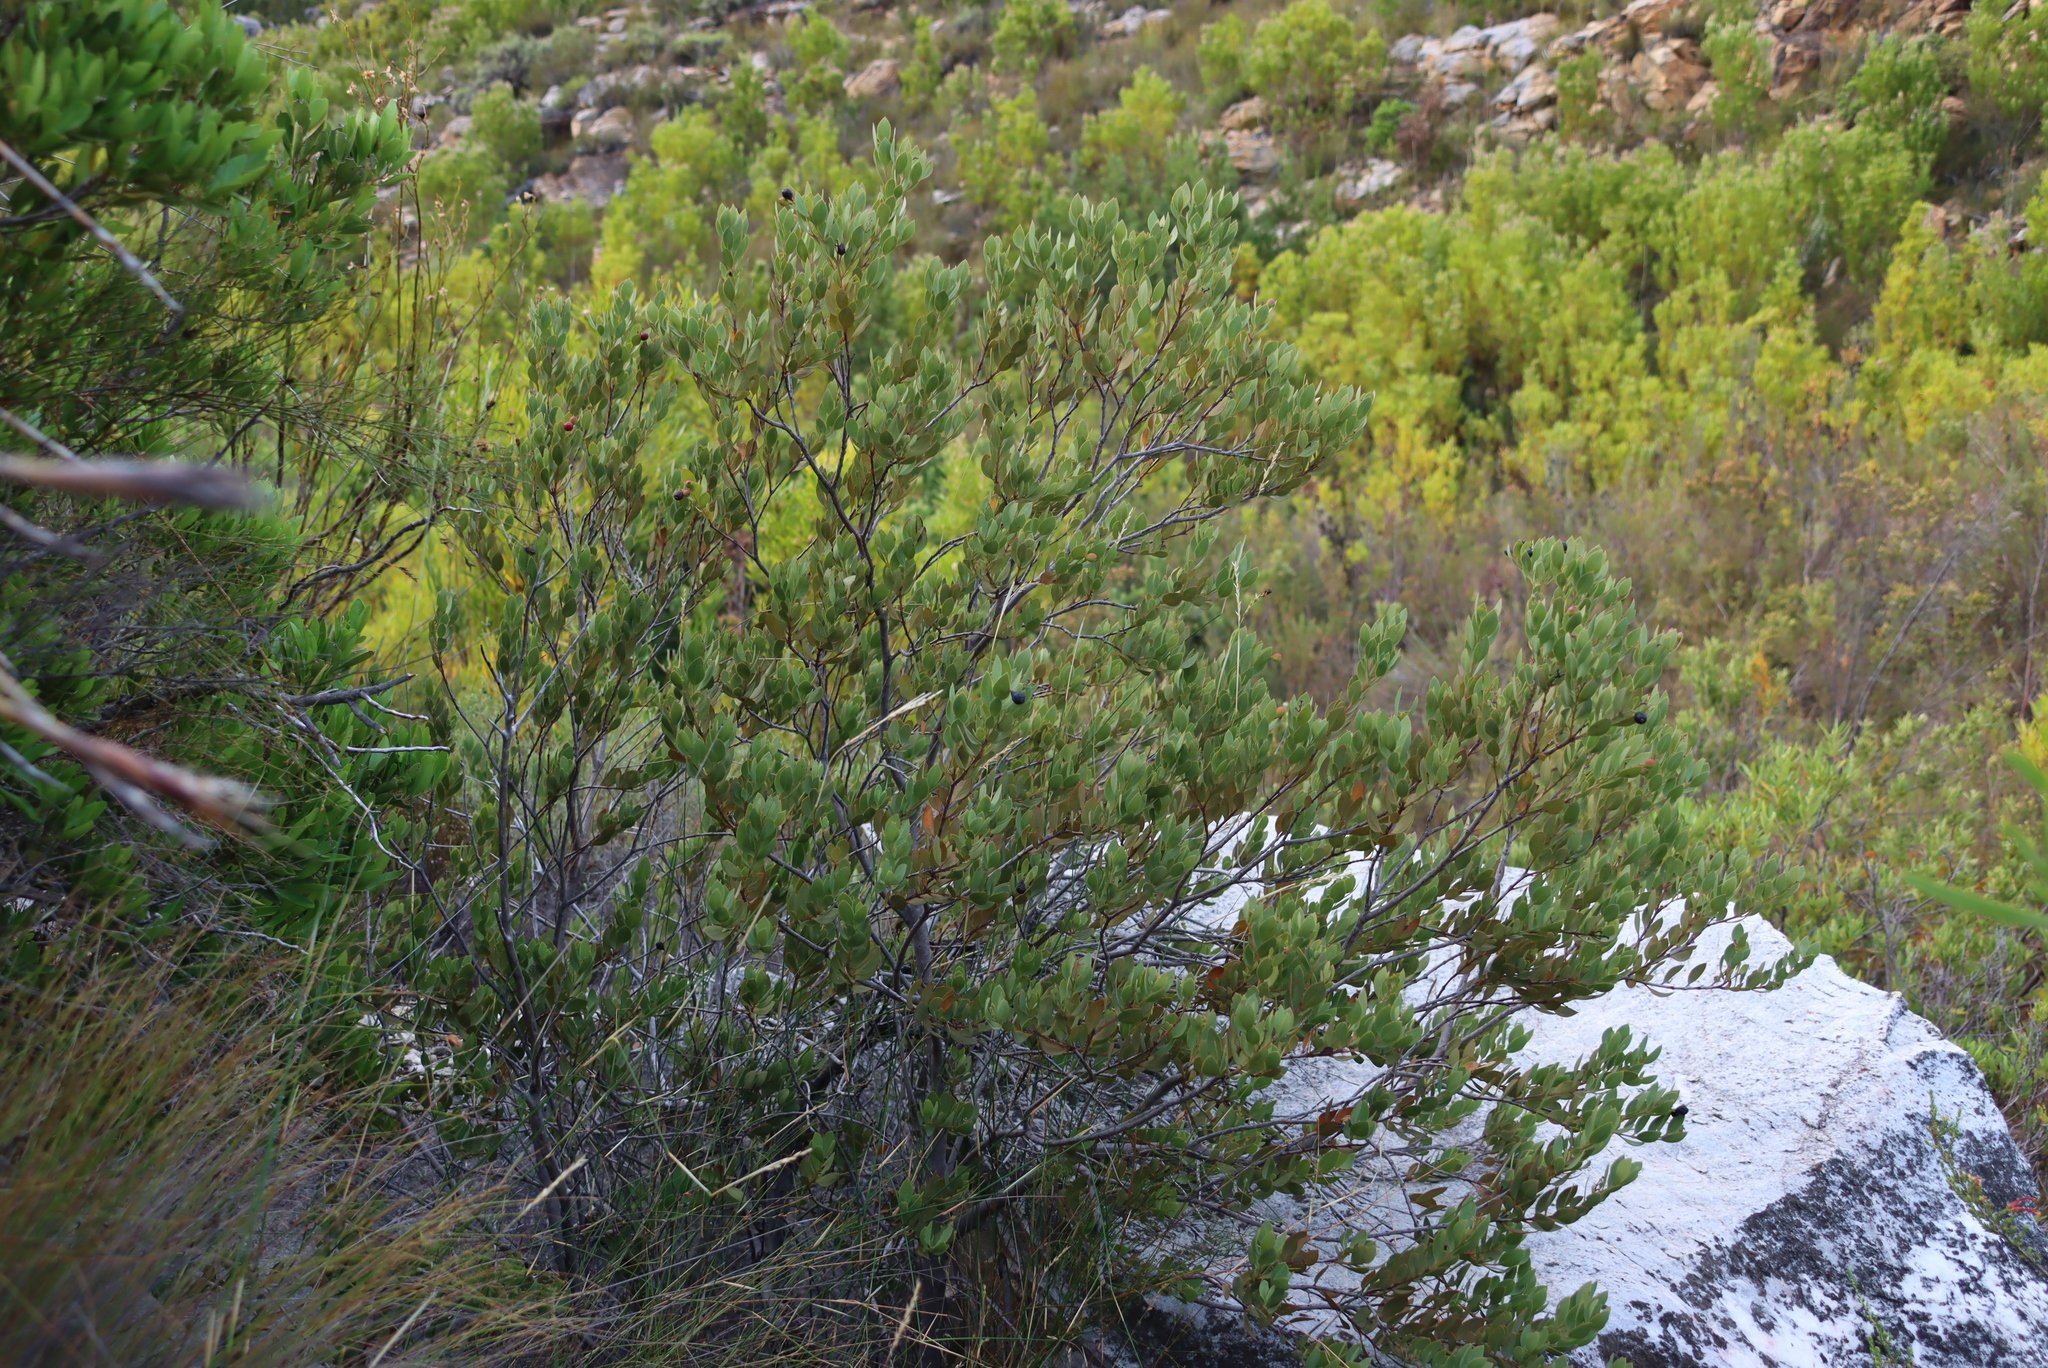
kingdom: Plantae
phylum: Tracheophyta
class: Magnoliopsida
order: Santalales
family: Santalaceae
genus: Osyris
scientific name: Osyris compressa
